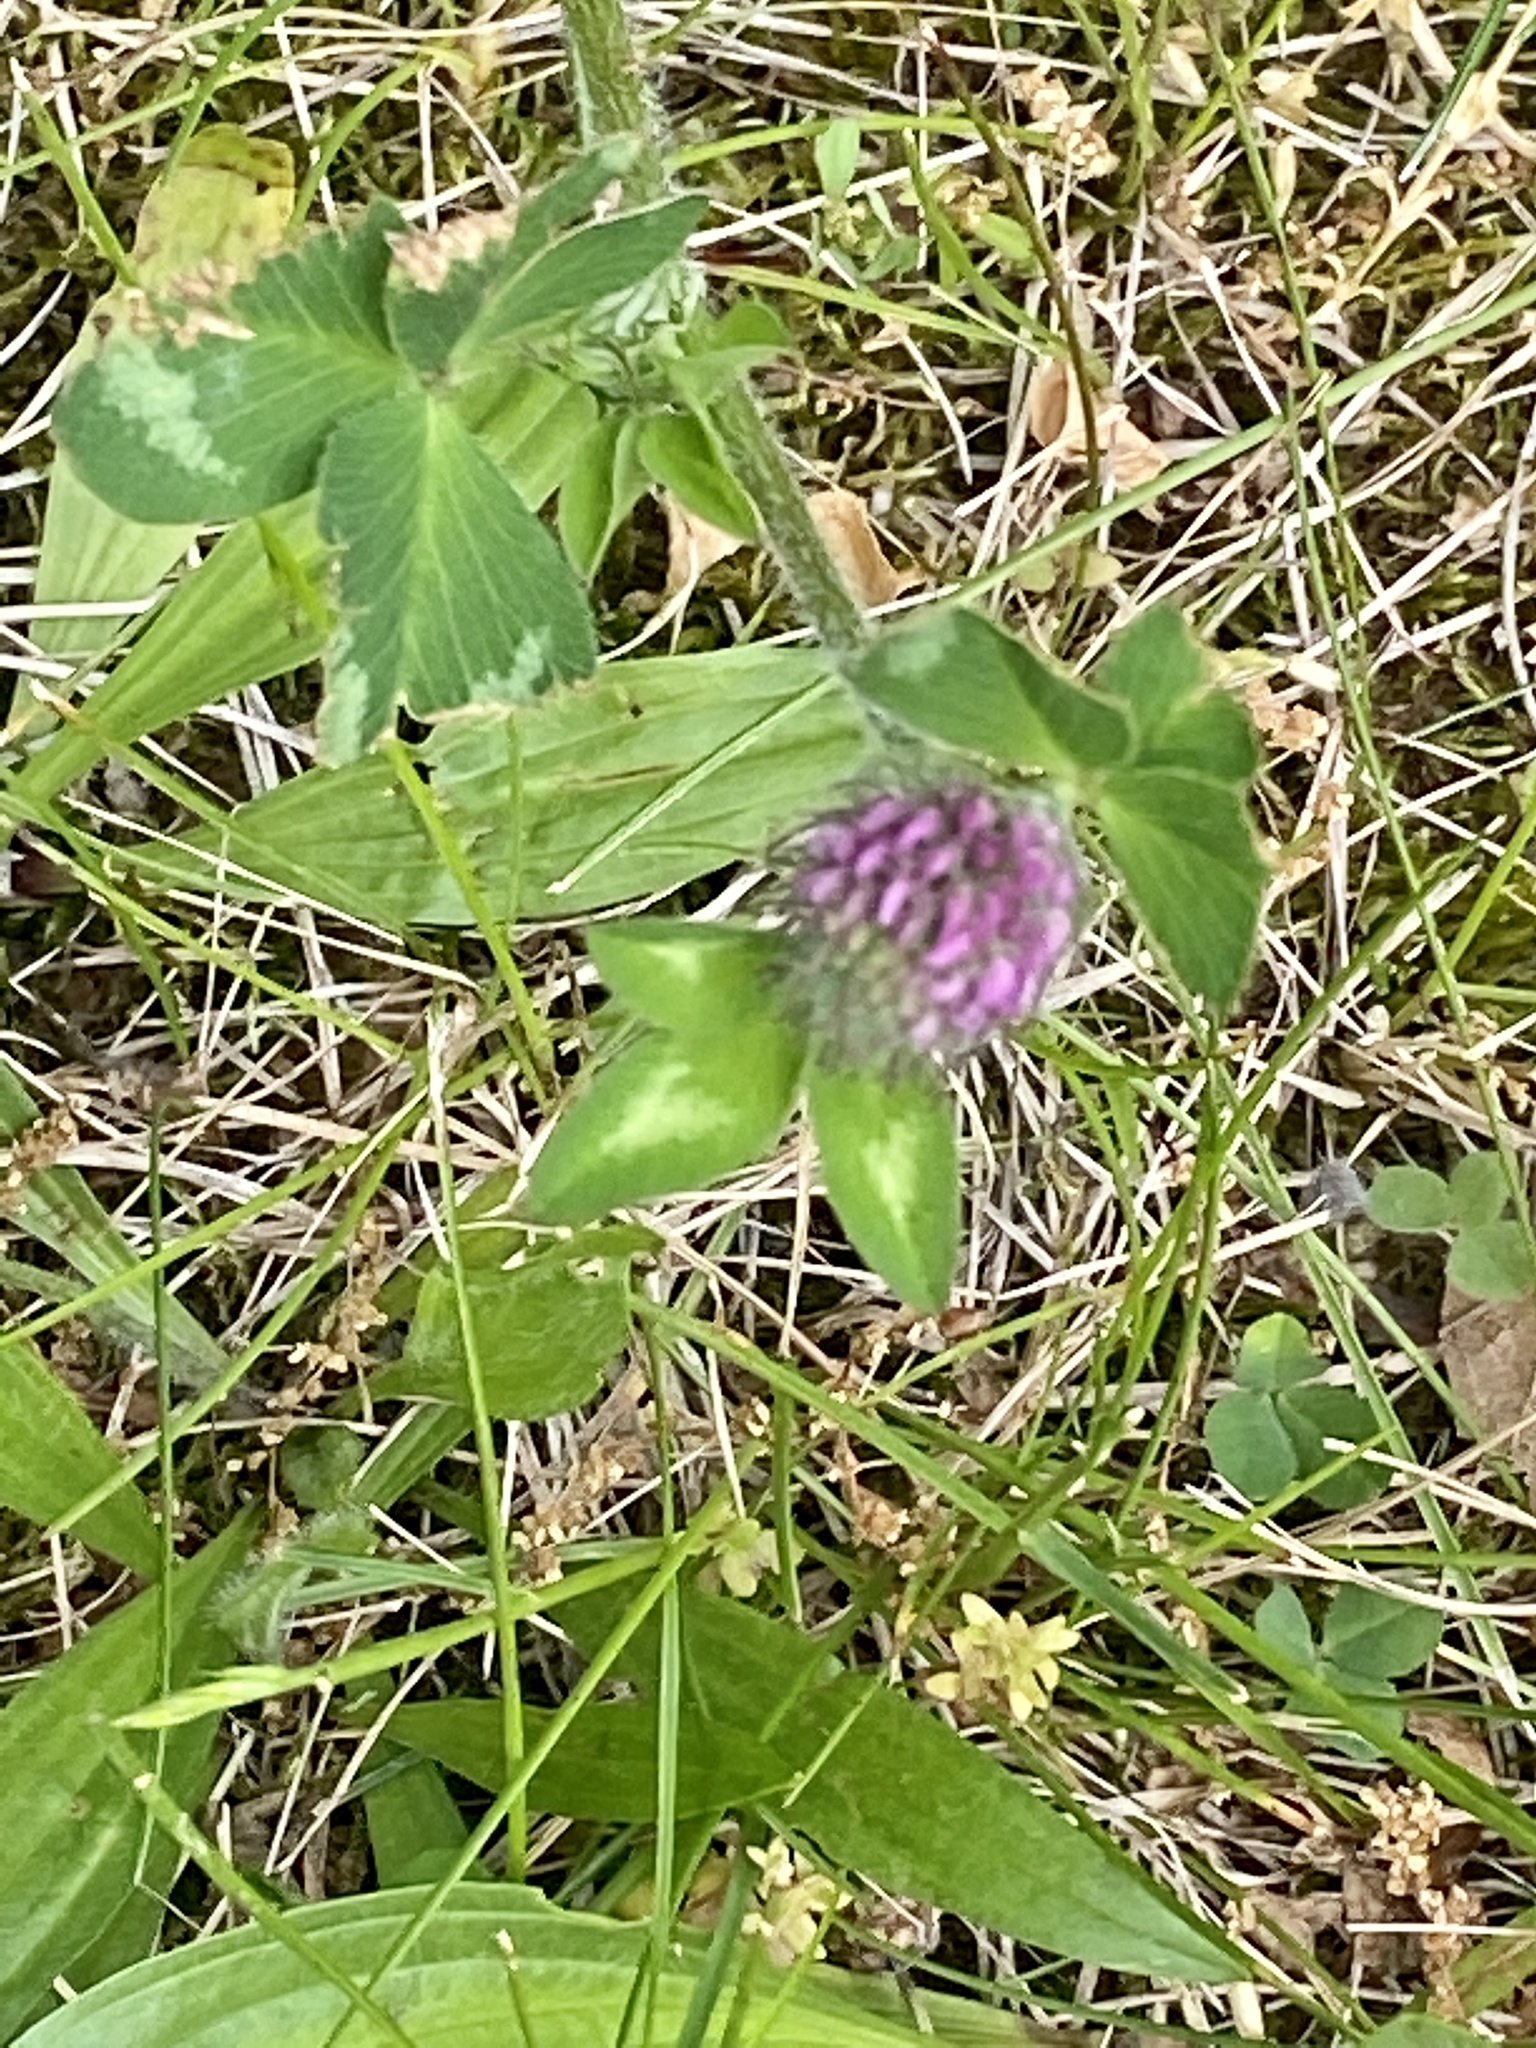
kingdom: Plantae
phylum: Tracheophyta
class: Magnoliopsida
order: Fabales
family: Fabaceae
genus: Trifolium
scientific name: Trifolium pratense
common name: Red clover
